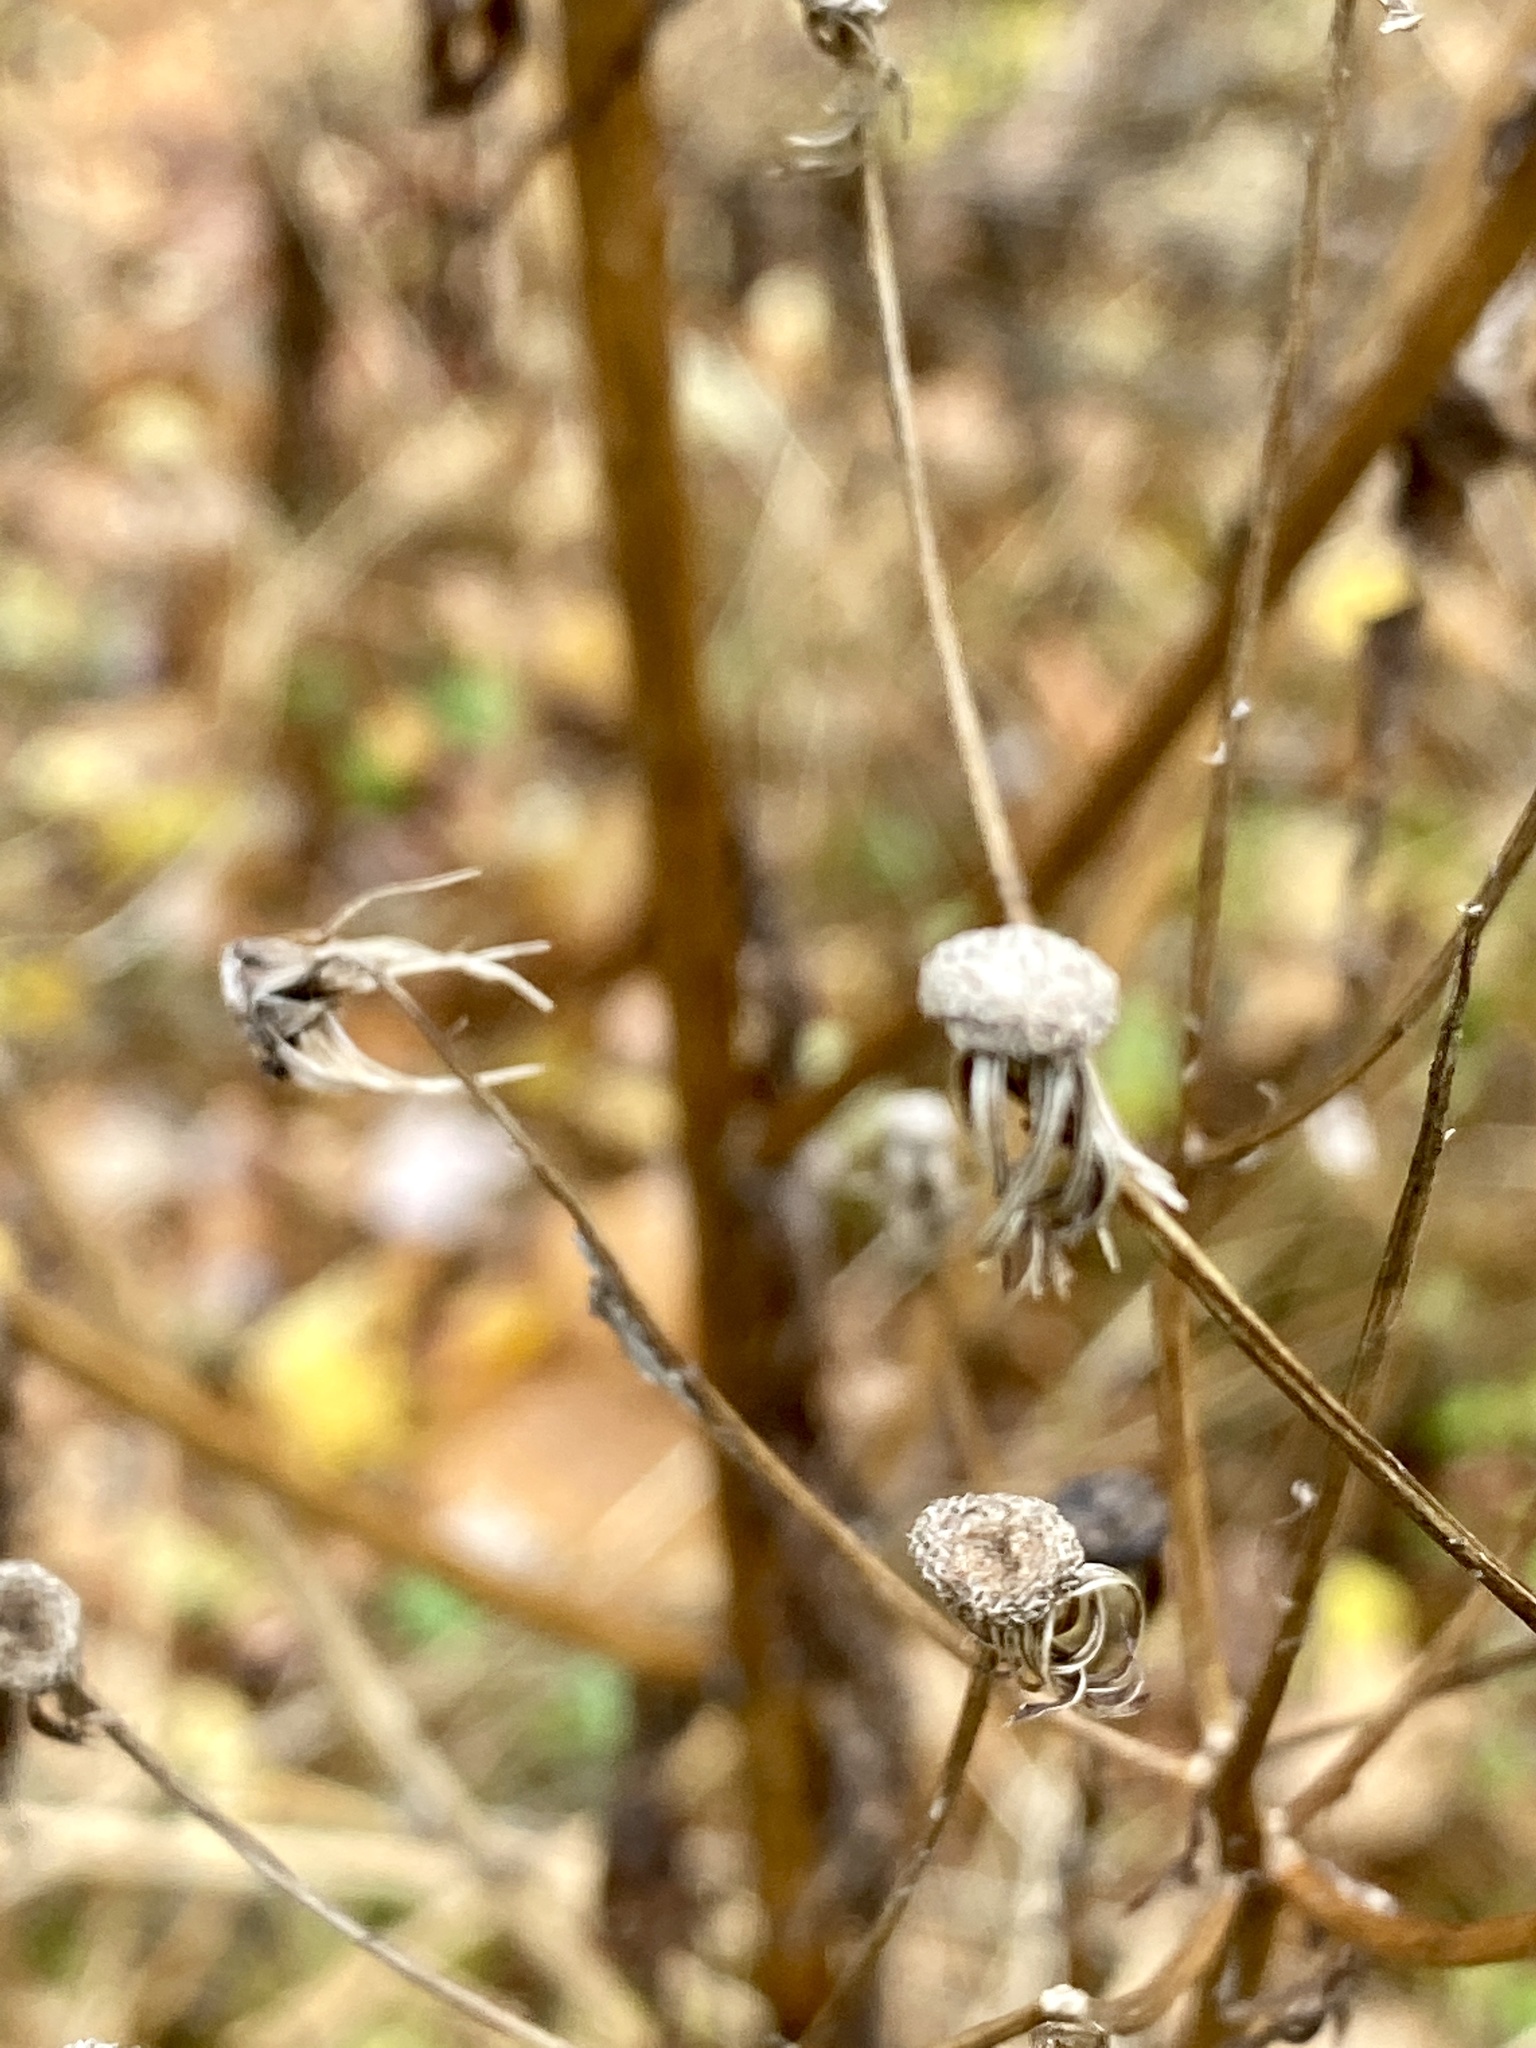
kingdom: Plantae
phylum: Tracheophyta
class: Magnoliopsida
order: Asterales
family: Asteraceae
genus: Erechtites
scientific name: Erechtites hieraciifolius
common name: American burnweed
